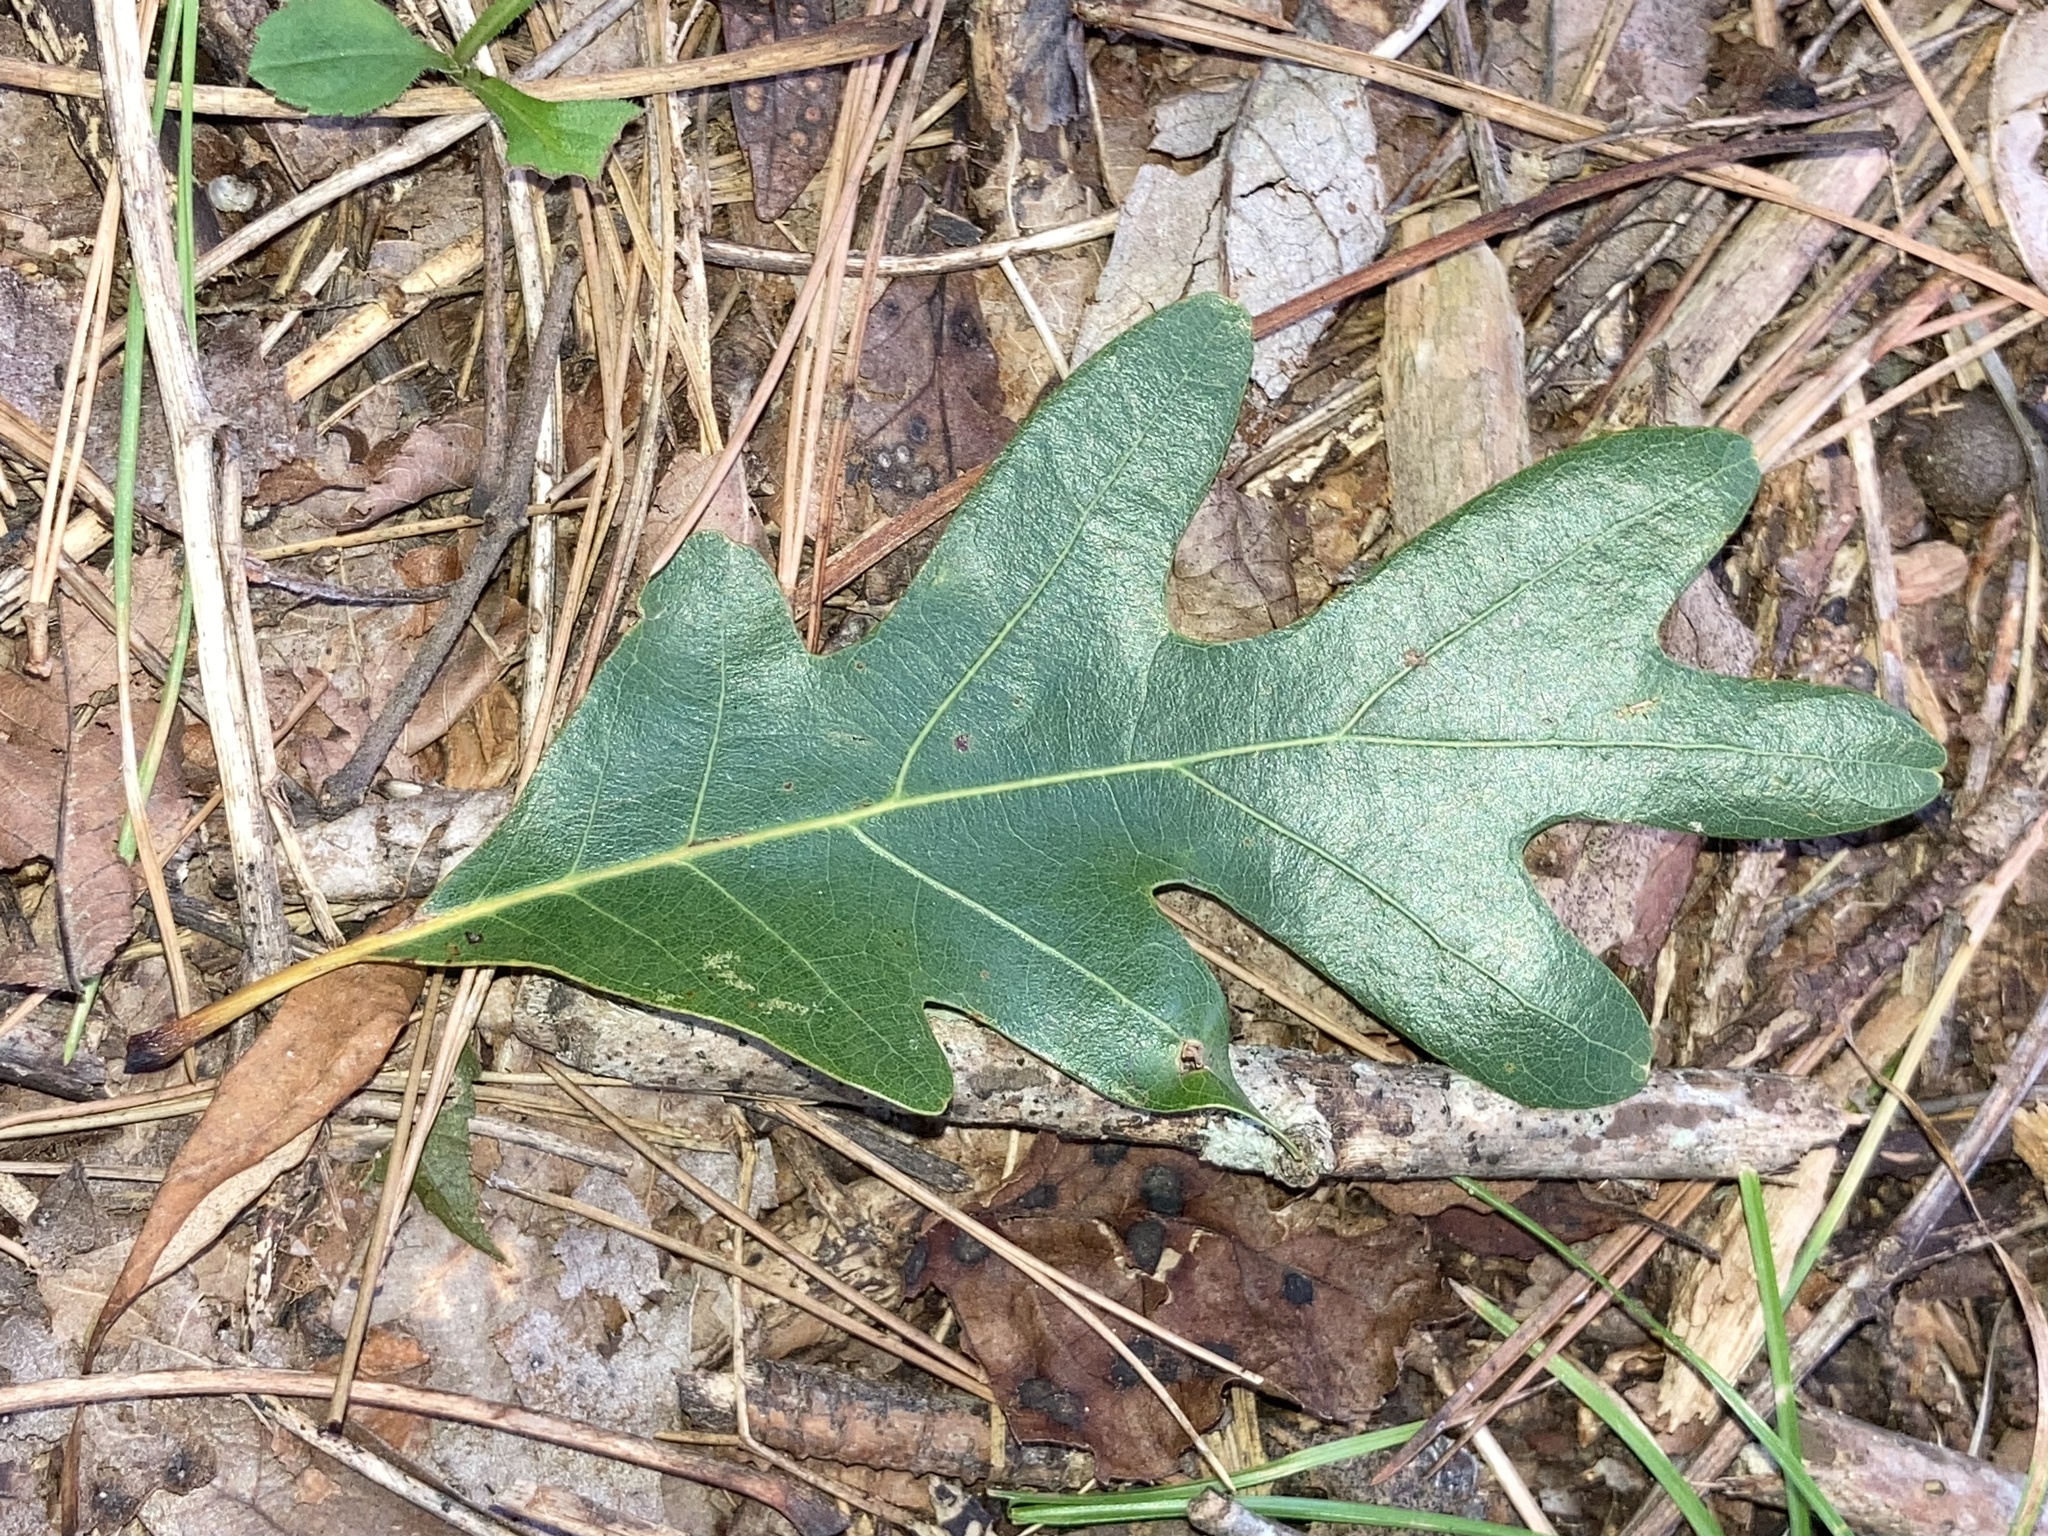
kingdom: Plantae
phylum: Tracheophyta
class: Magnoliopsida
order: Fagales
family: Fagaceae
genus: Quercus
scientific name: Quercus alba
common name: White oak
